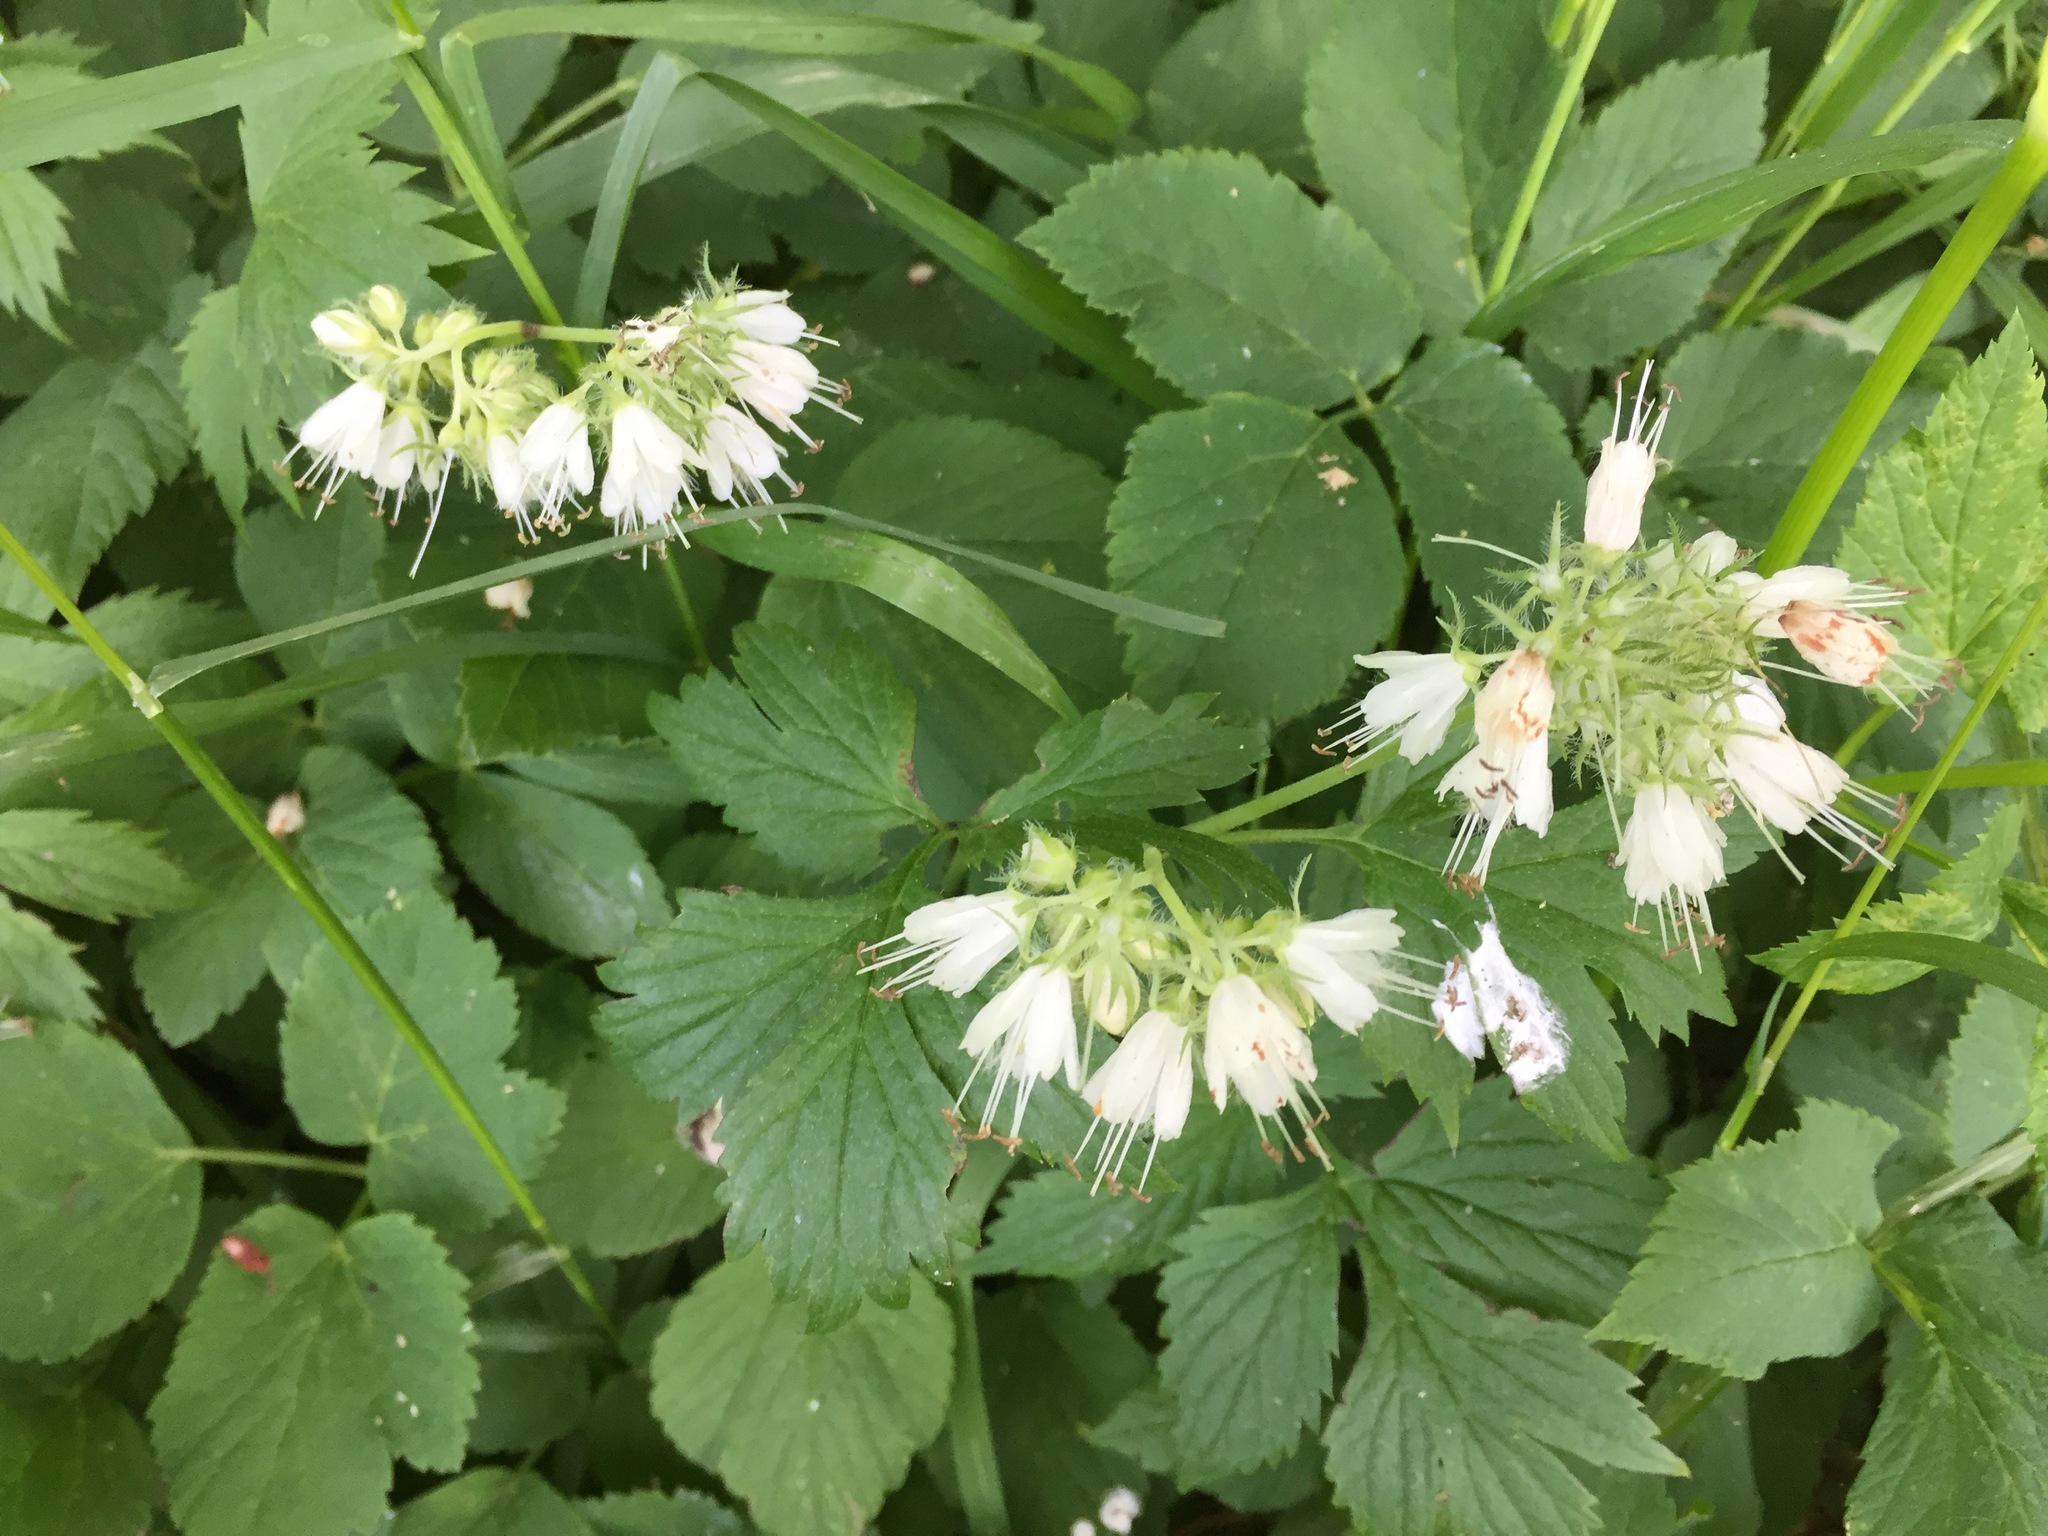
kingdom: Plantae
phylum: Tracheophyta
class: Magnoliopsida
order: Boraginales
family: Hydrophyllaceae
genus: Hydrophyllum
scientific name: Hydrophyllum virginianum
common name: Virginia waterleaf
